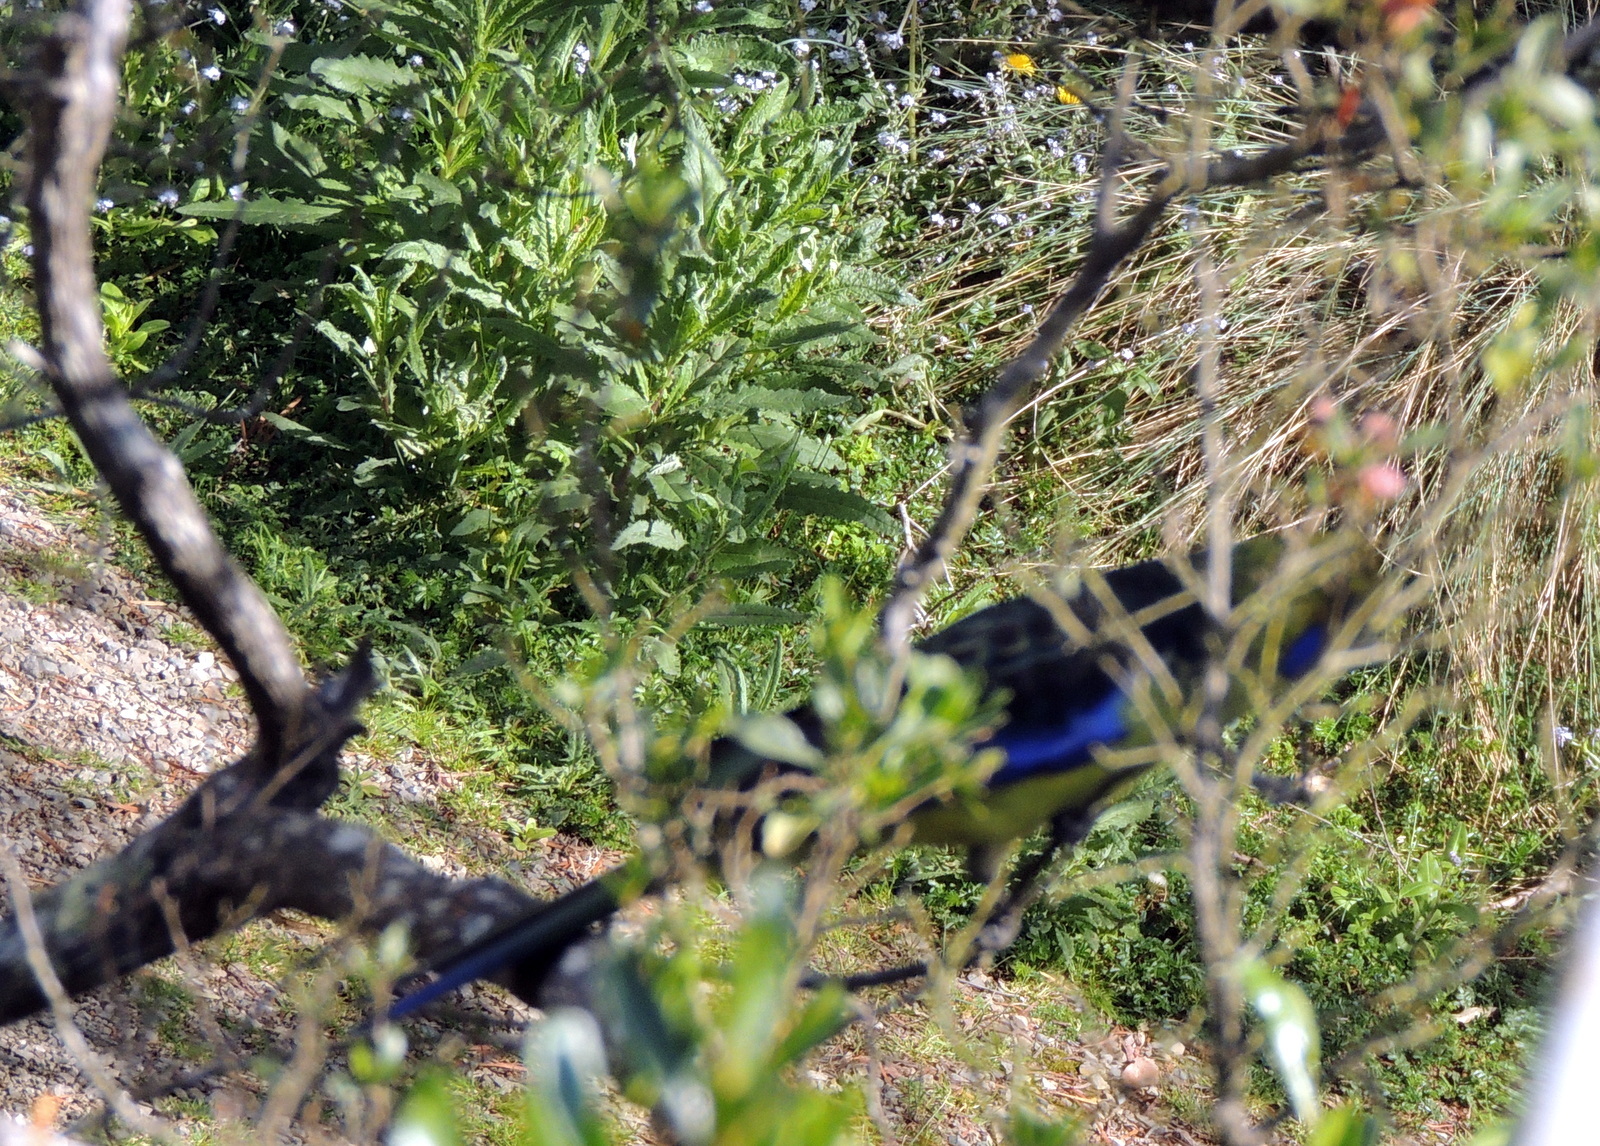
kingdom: Animalia
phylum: Chordata
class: Aves
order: Psittaciformes
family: Psittacidae
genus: Platycercus
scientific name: Platycercus caledonicus
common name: Green rosella
